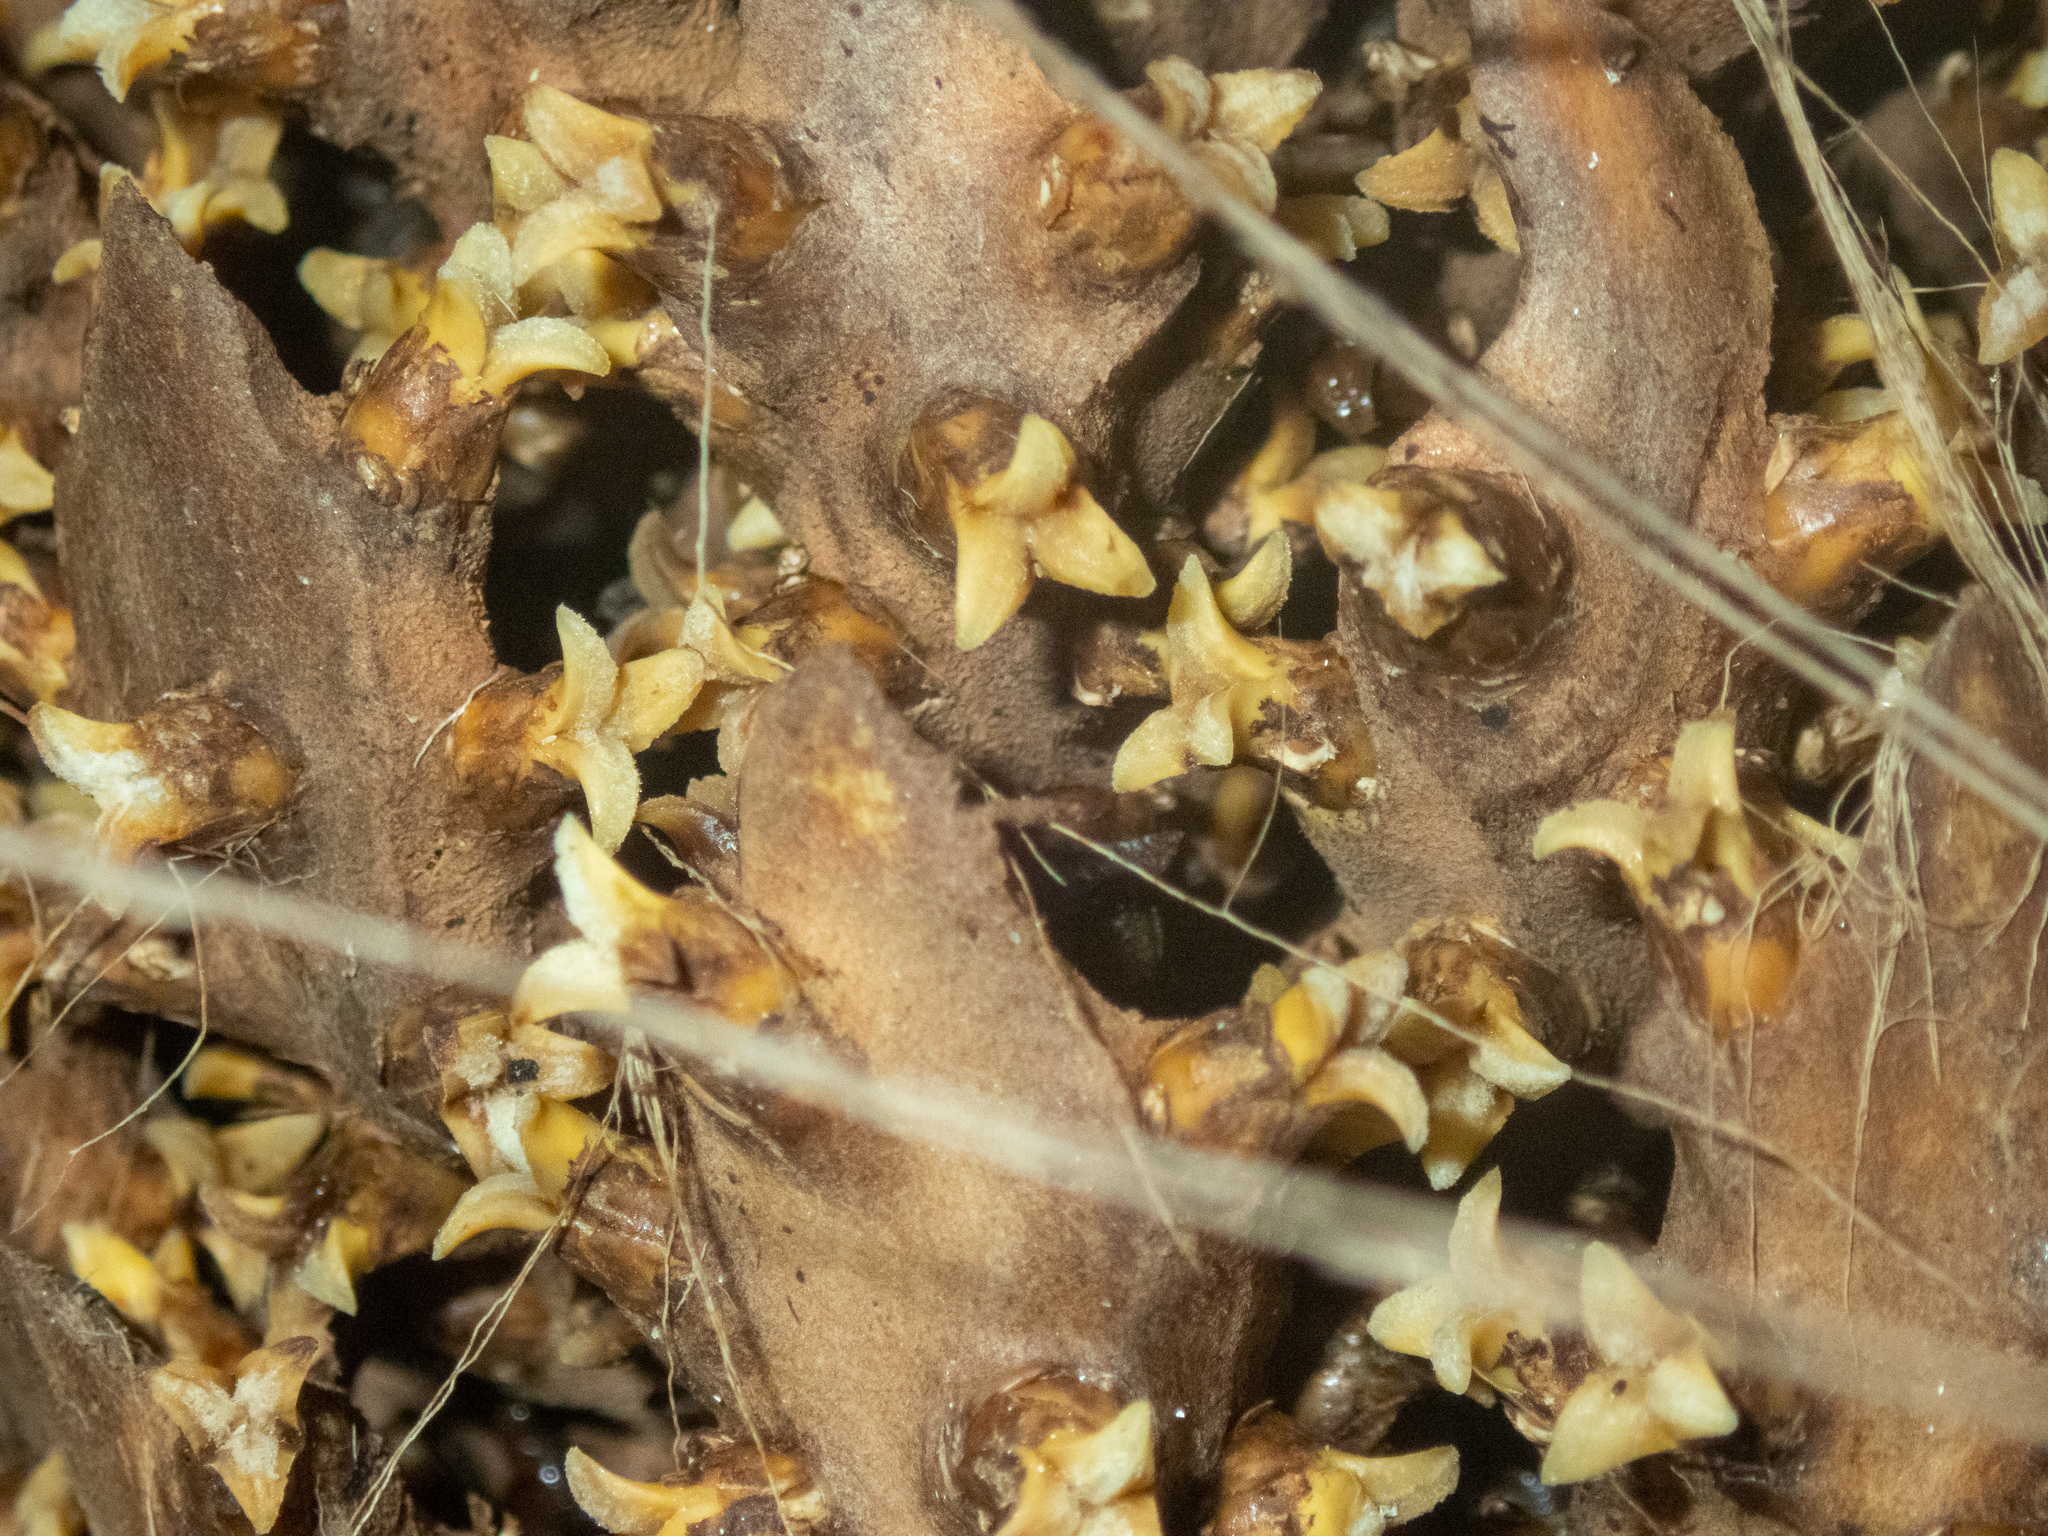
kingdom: Plantae
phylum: Tracheophyta
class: Liliopsida
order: Arecales
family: Arecaceae
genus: Elaeis
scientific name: Elaeis oleifera
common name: American oil palm
